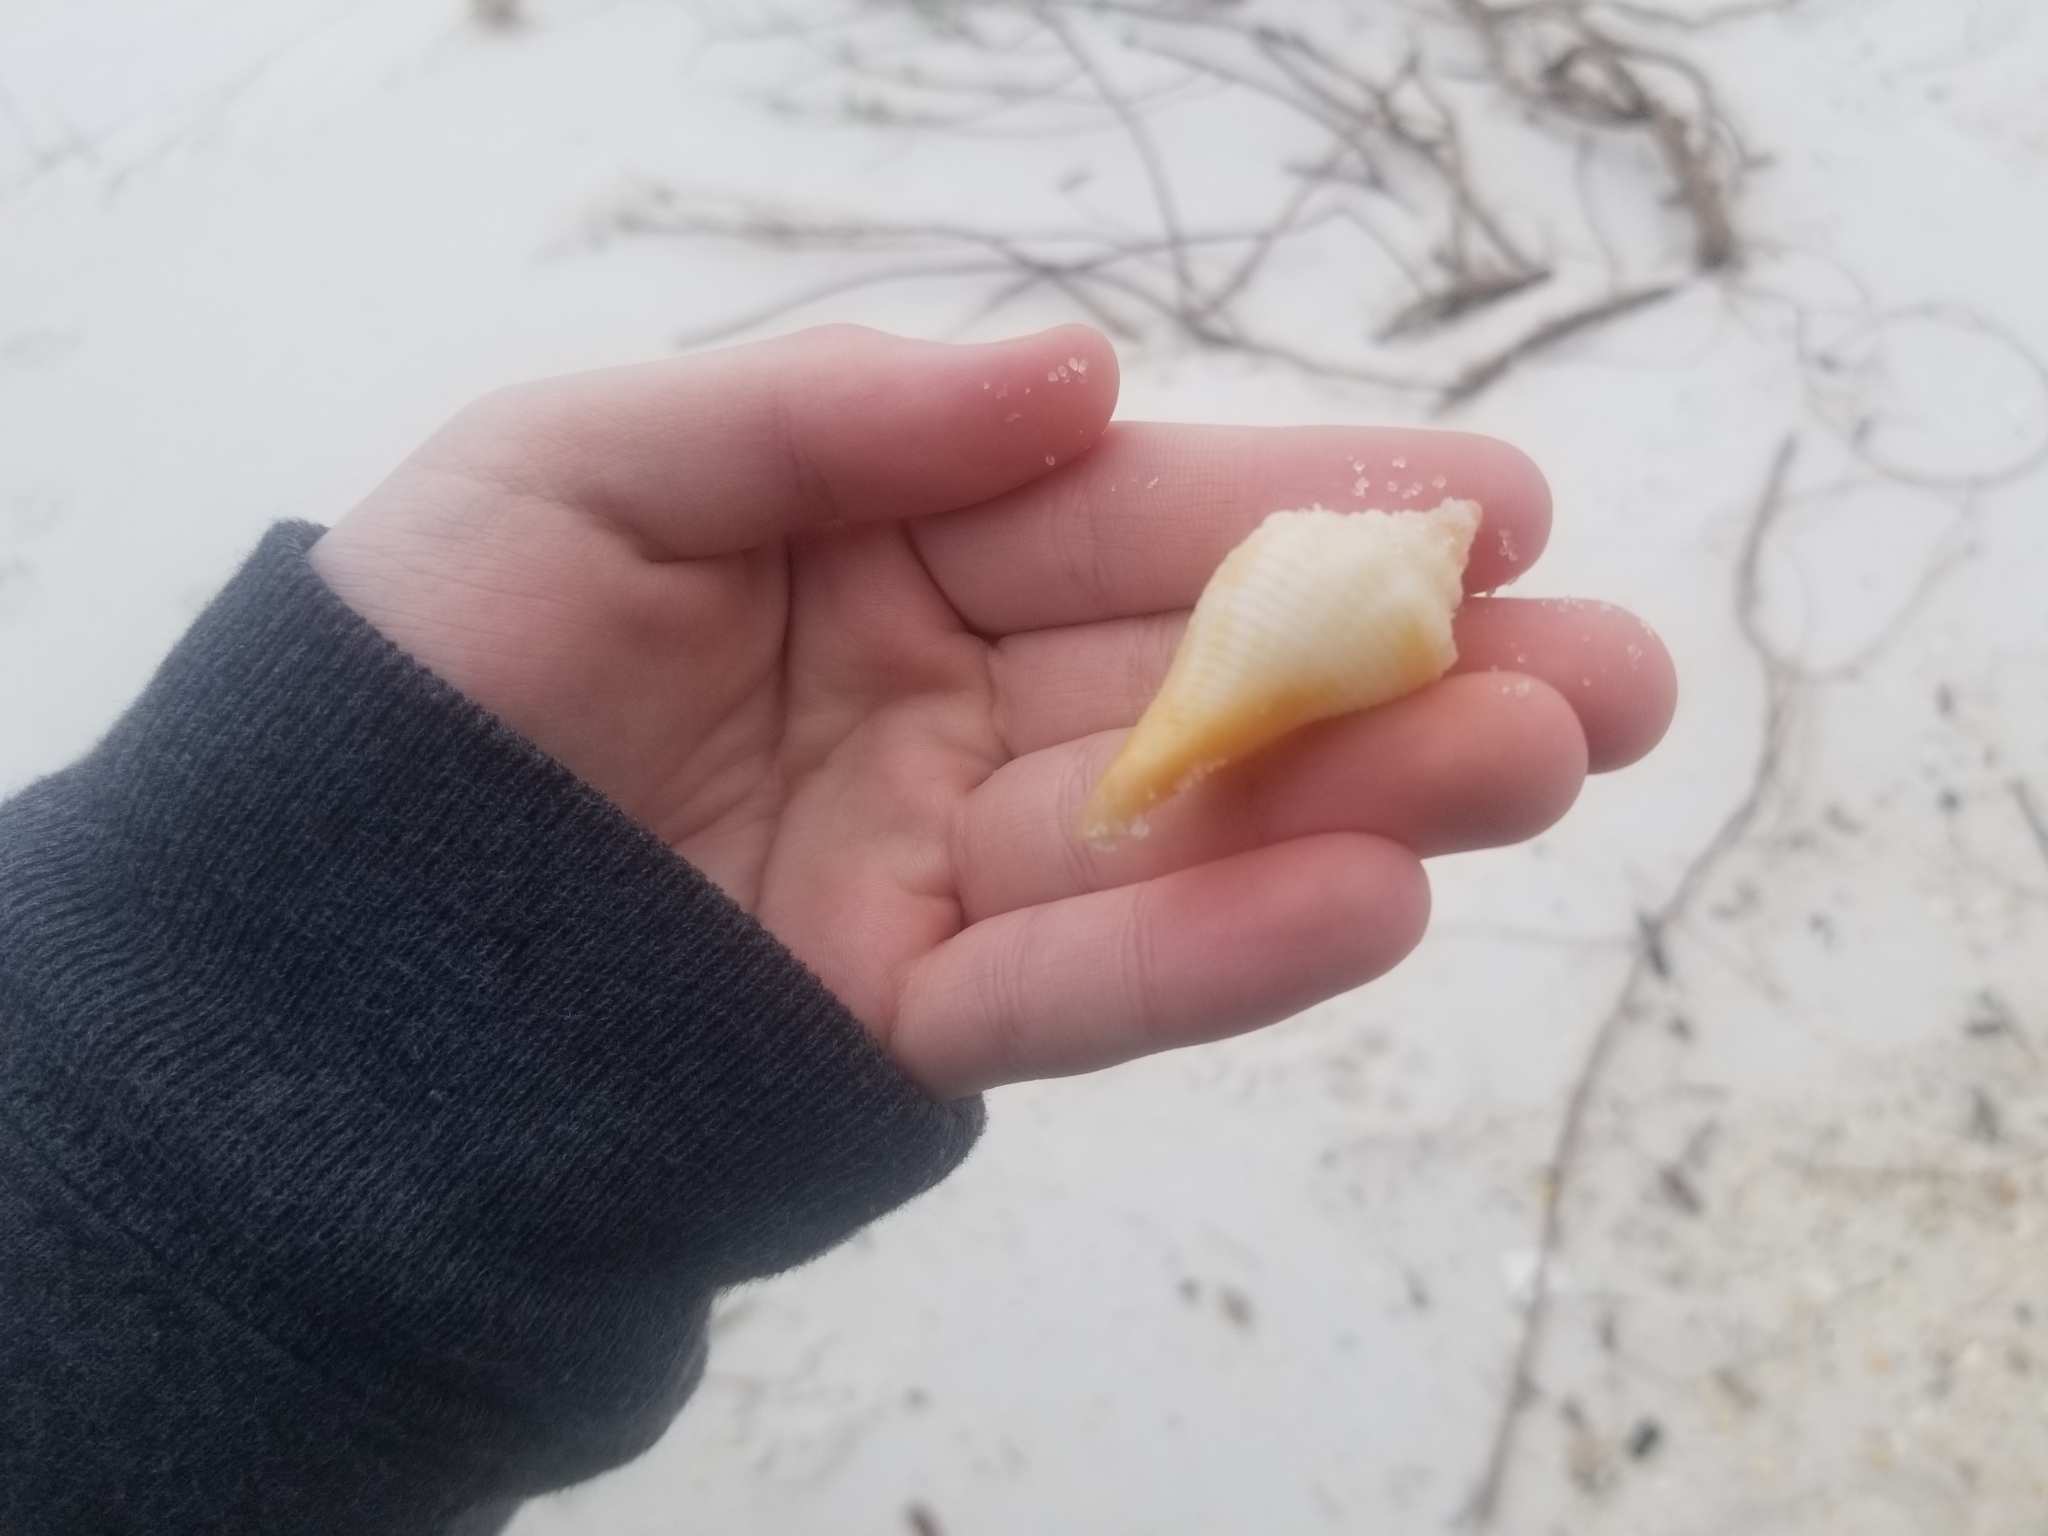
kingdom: Animalia
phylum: Mollusca
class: Gastropoda
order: Littorinimorpha
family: Strombidae
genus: Strombus
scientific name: Strombus alatus
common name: Florida fighting conch
